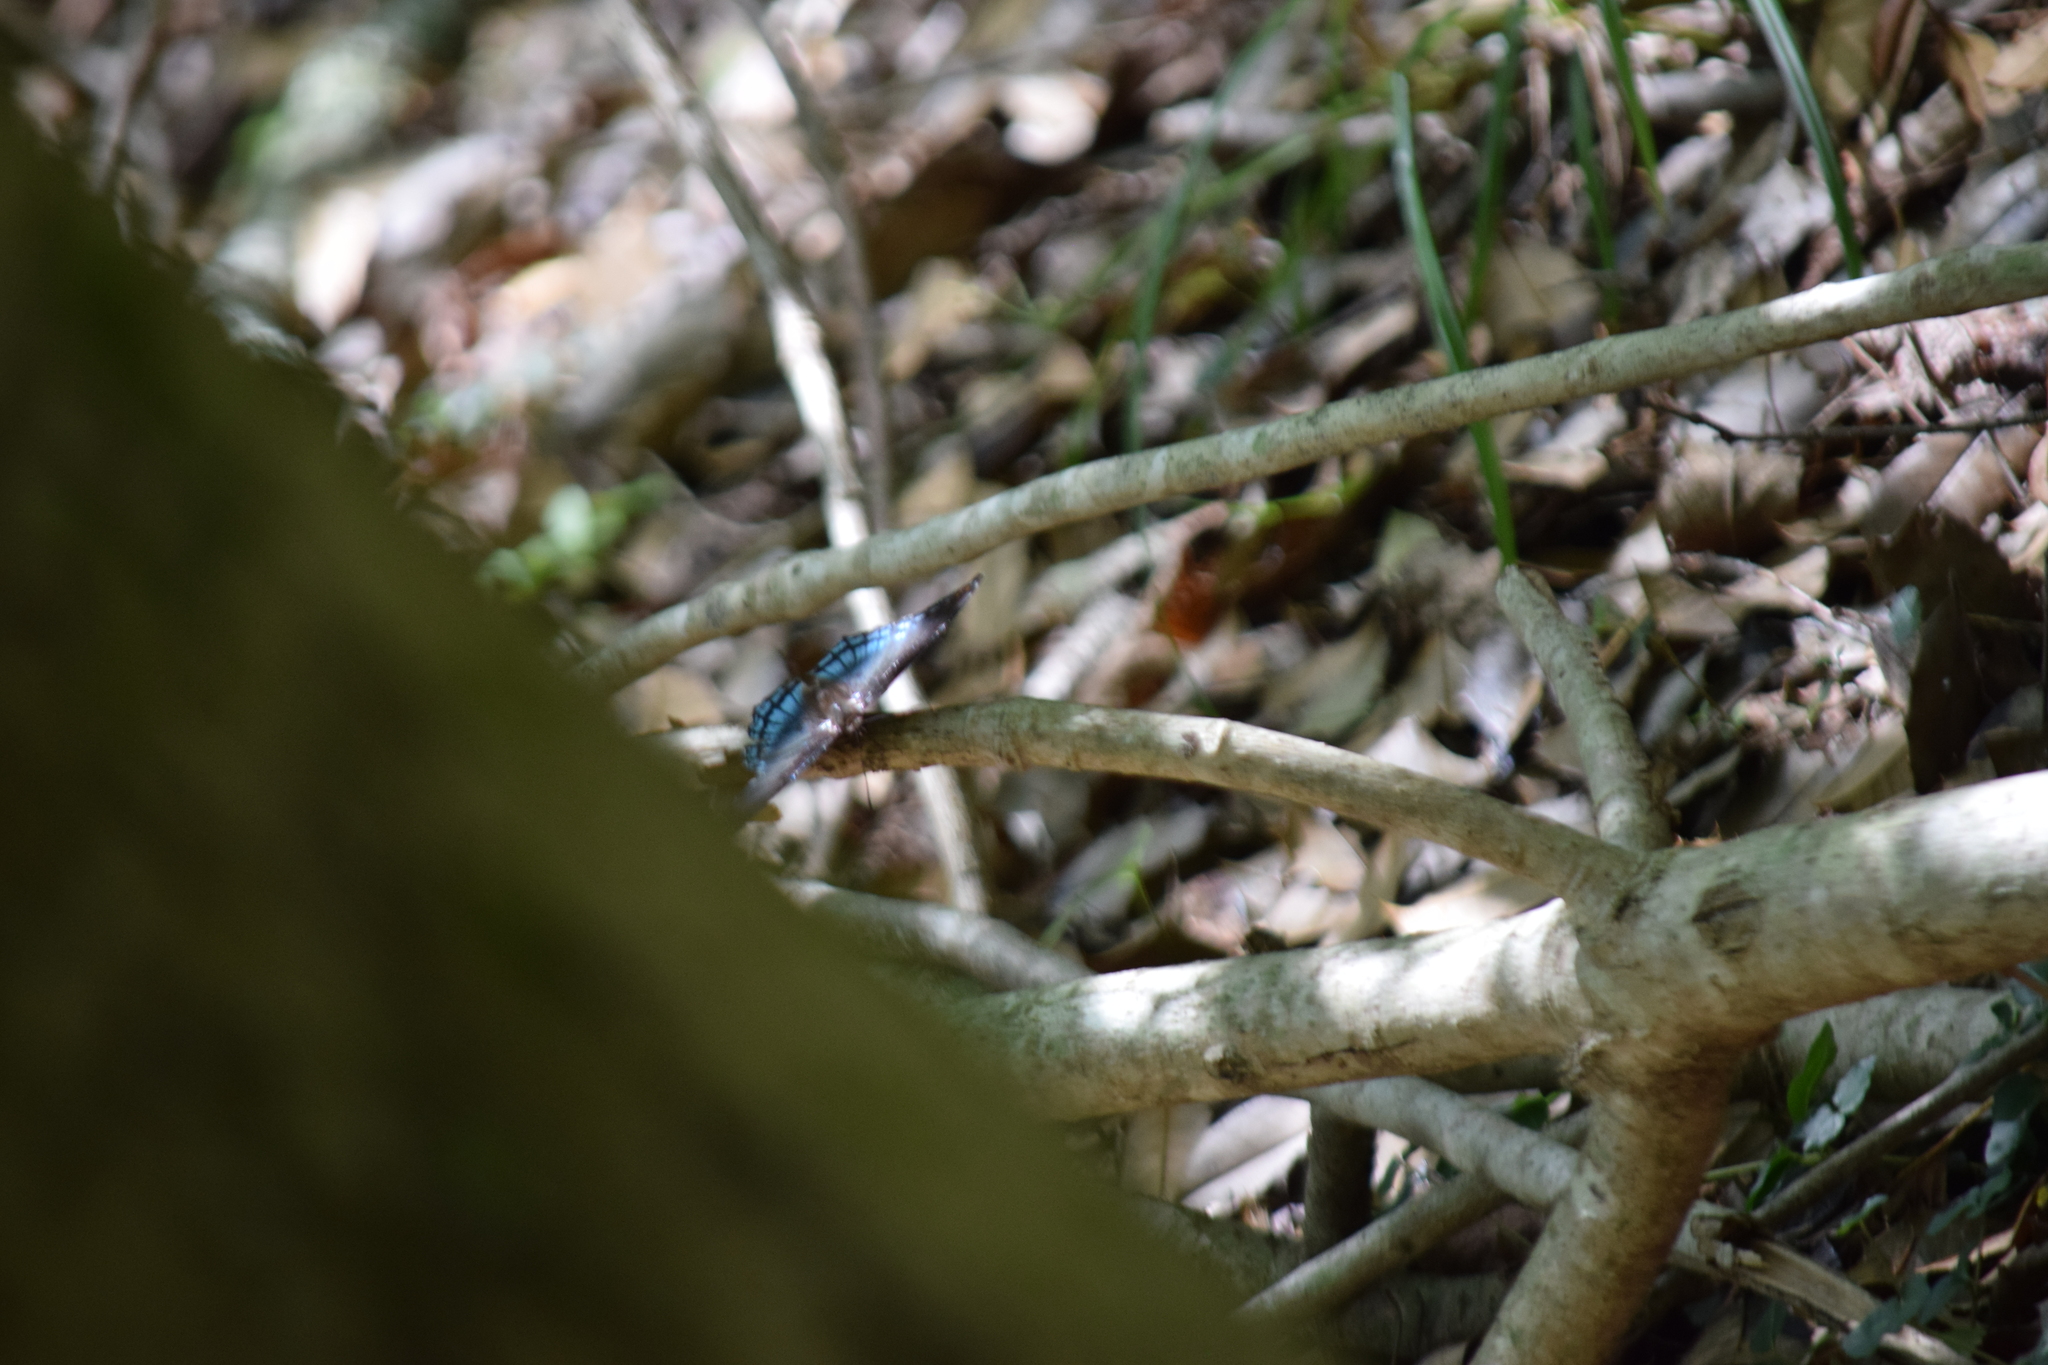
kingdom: Animalia
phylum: Arthropoda
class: Insecta
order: Lepidoptera
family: Nymphalidae
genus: Limenitis
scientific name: Limenitis astyanax
